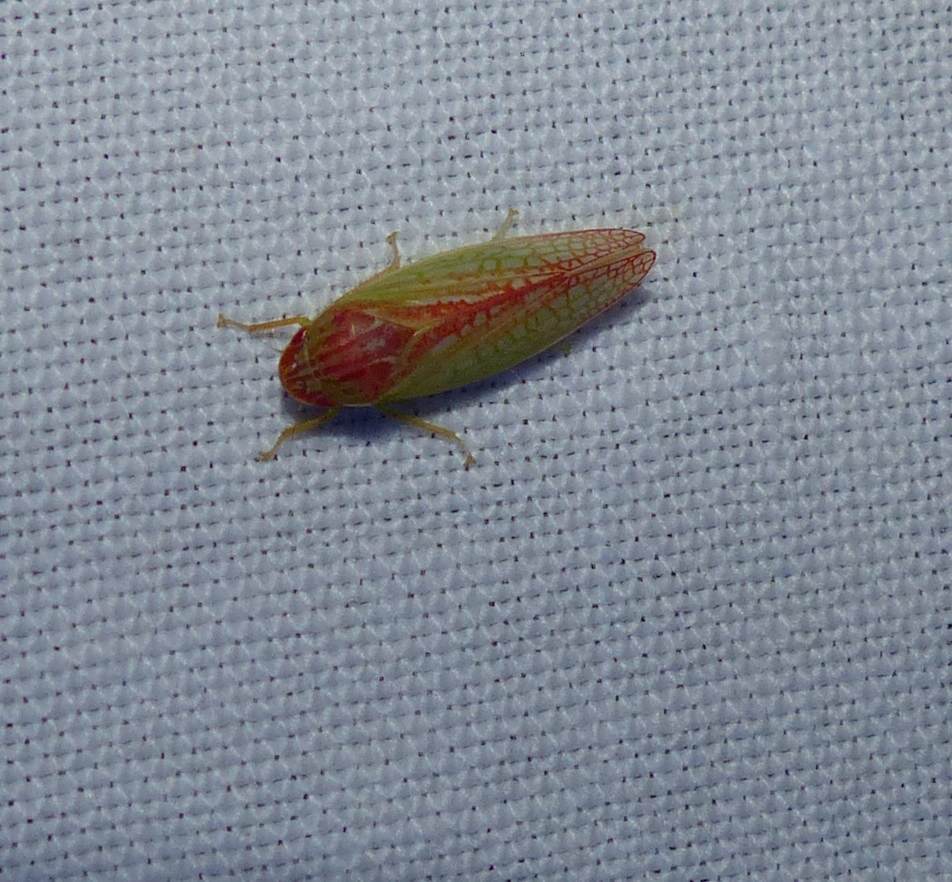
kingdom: Animalia
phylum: Arthropoda
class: Insecta
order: Hemiptera
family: Cicadellidae
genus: Gyponana
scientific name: Gyponana octolineata
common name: Eight-lined leafhopper
